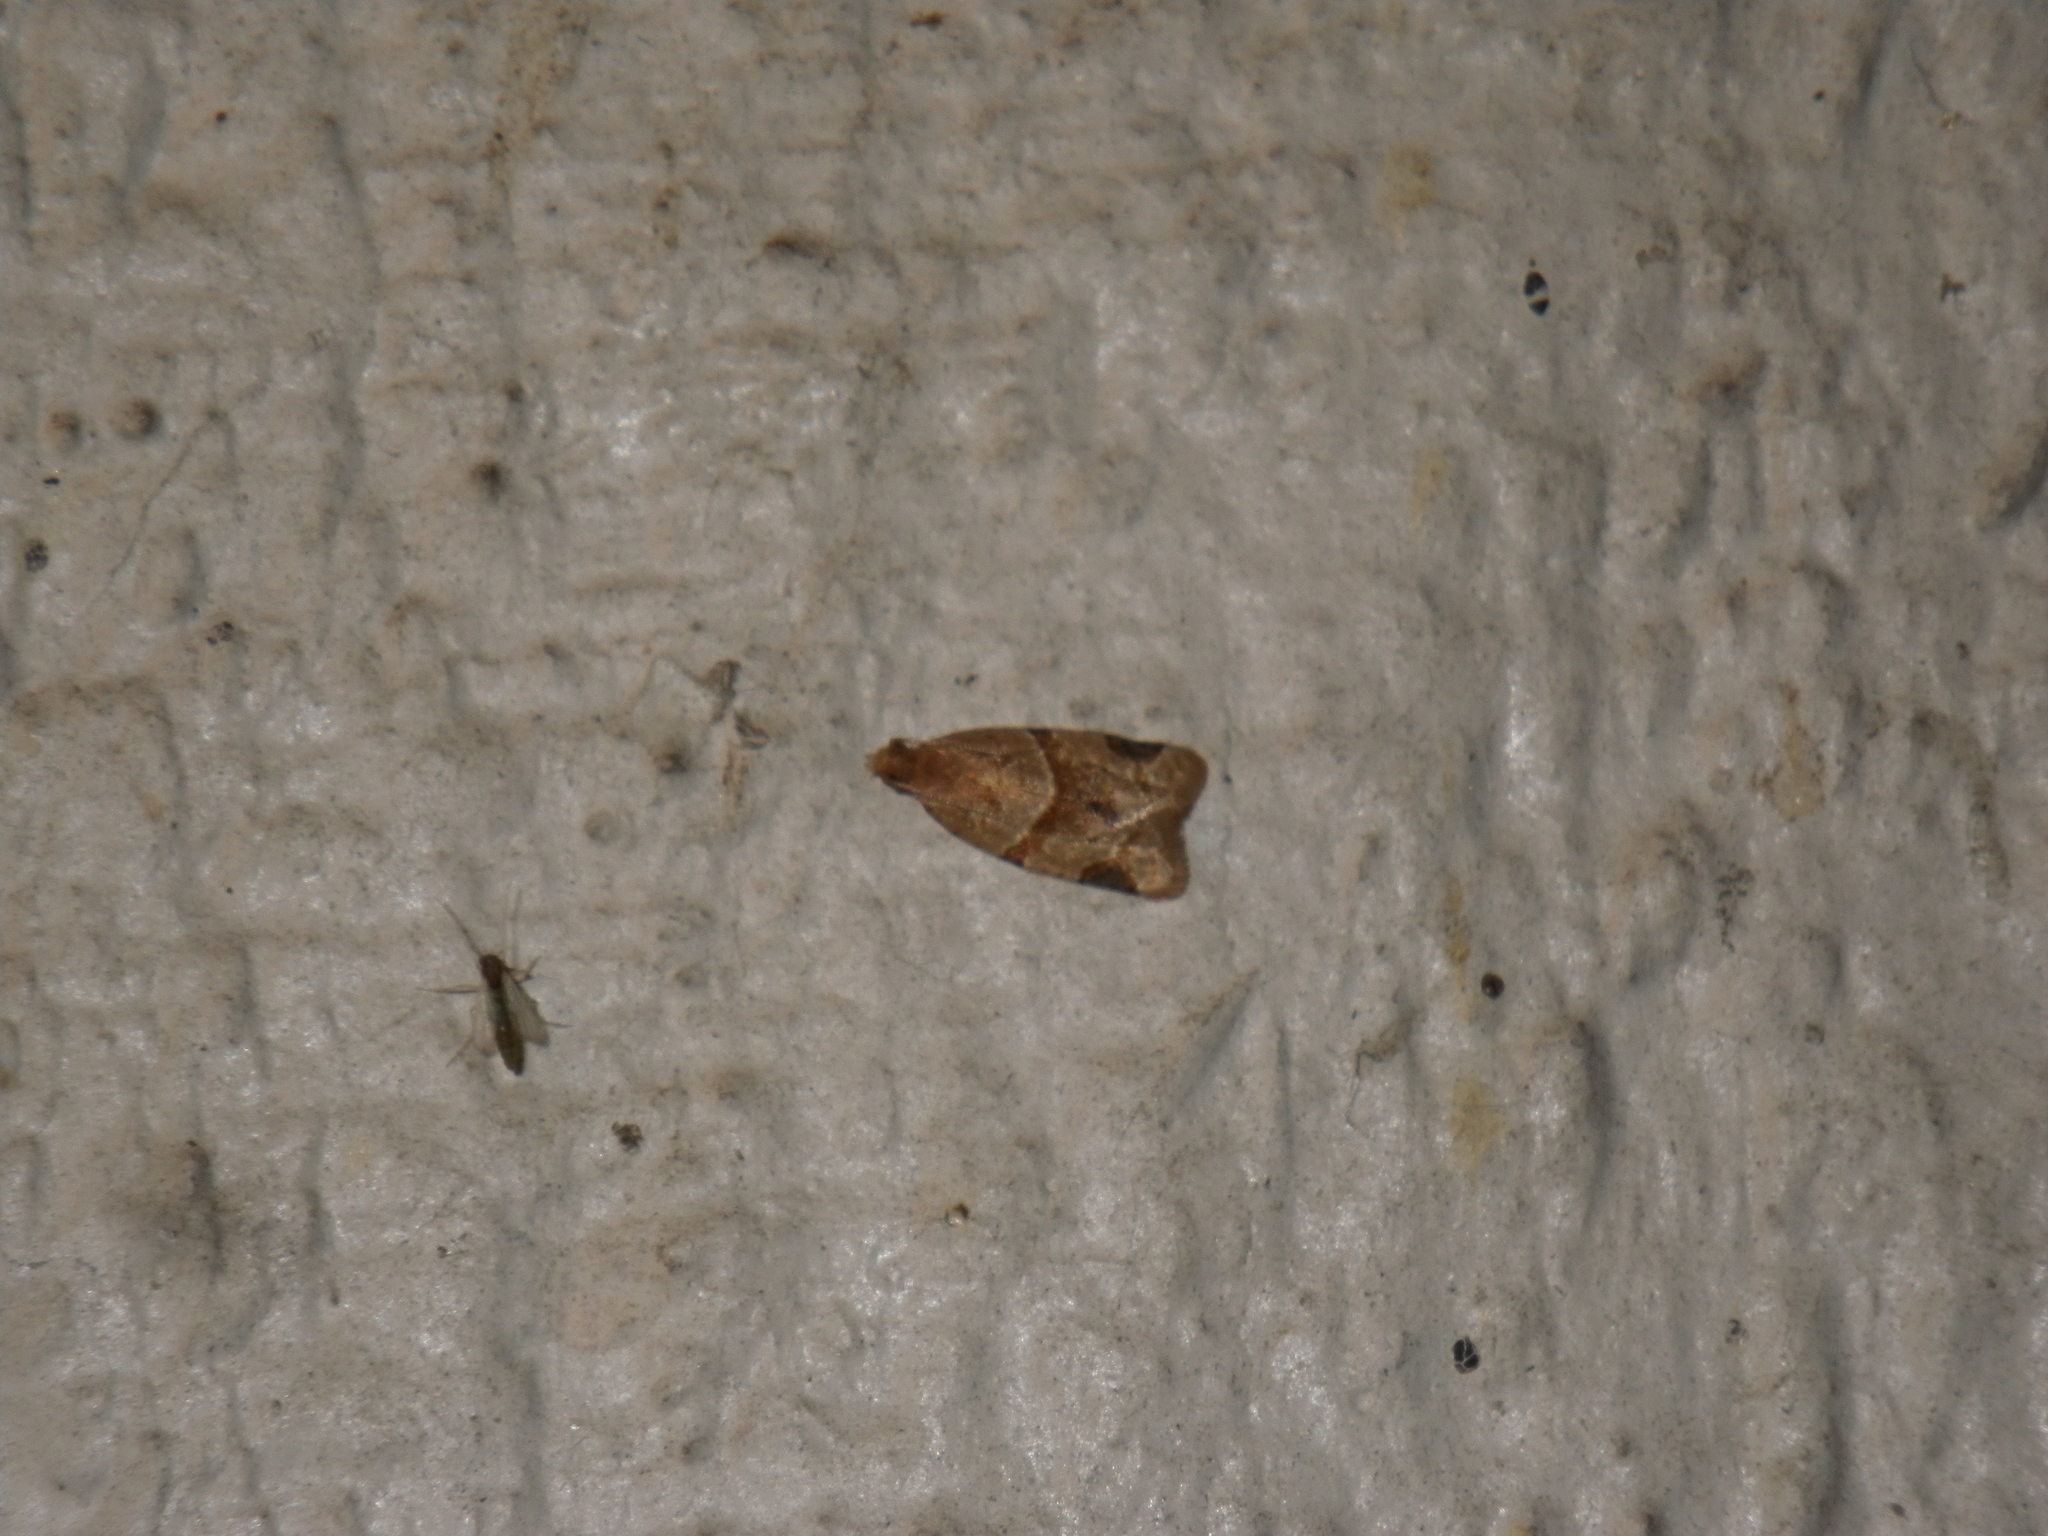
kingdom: Animalia
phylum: Arthropoda
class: Insecta
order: Lepidoptera
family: Tortricidae
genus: Clepsis
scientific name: Clepsis peritana
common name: Garden tortrix
